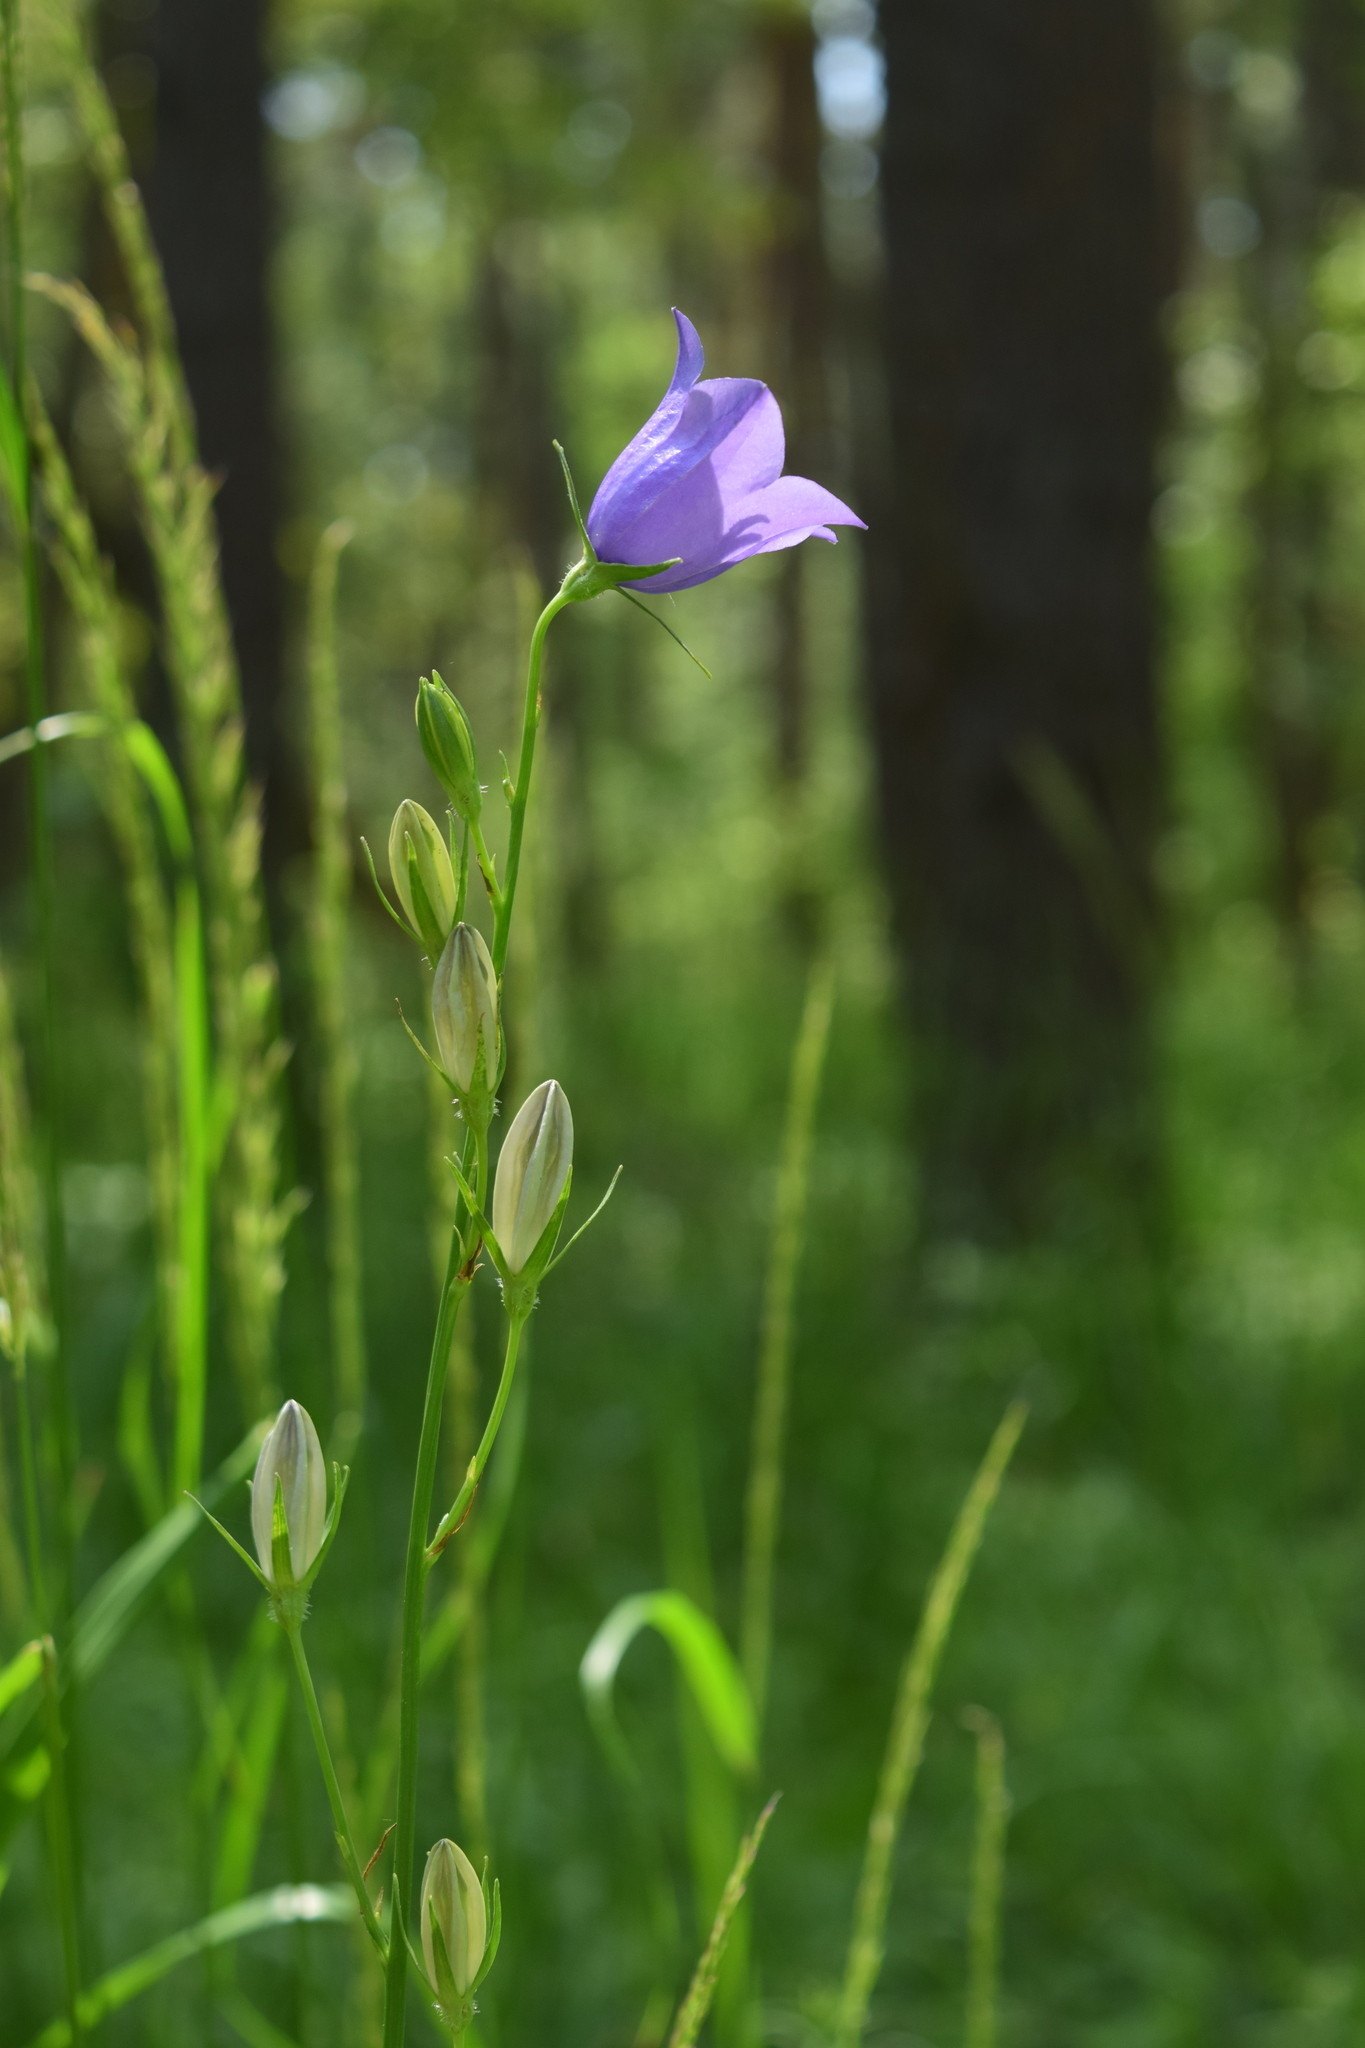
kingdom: Plantae
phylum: Tracheophyta
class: Magnoliopsida
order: Asterales
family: Campanulaceae
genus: Campanula
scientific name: Campanula persicifolia
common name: Peach-leaved bellflower
